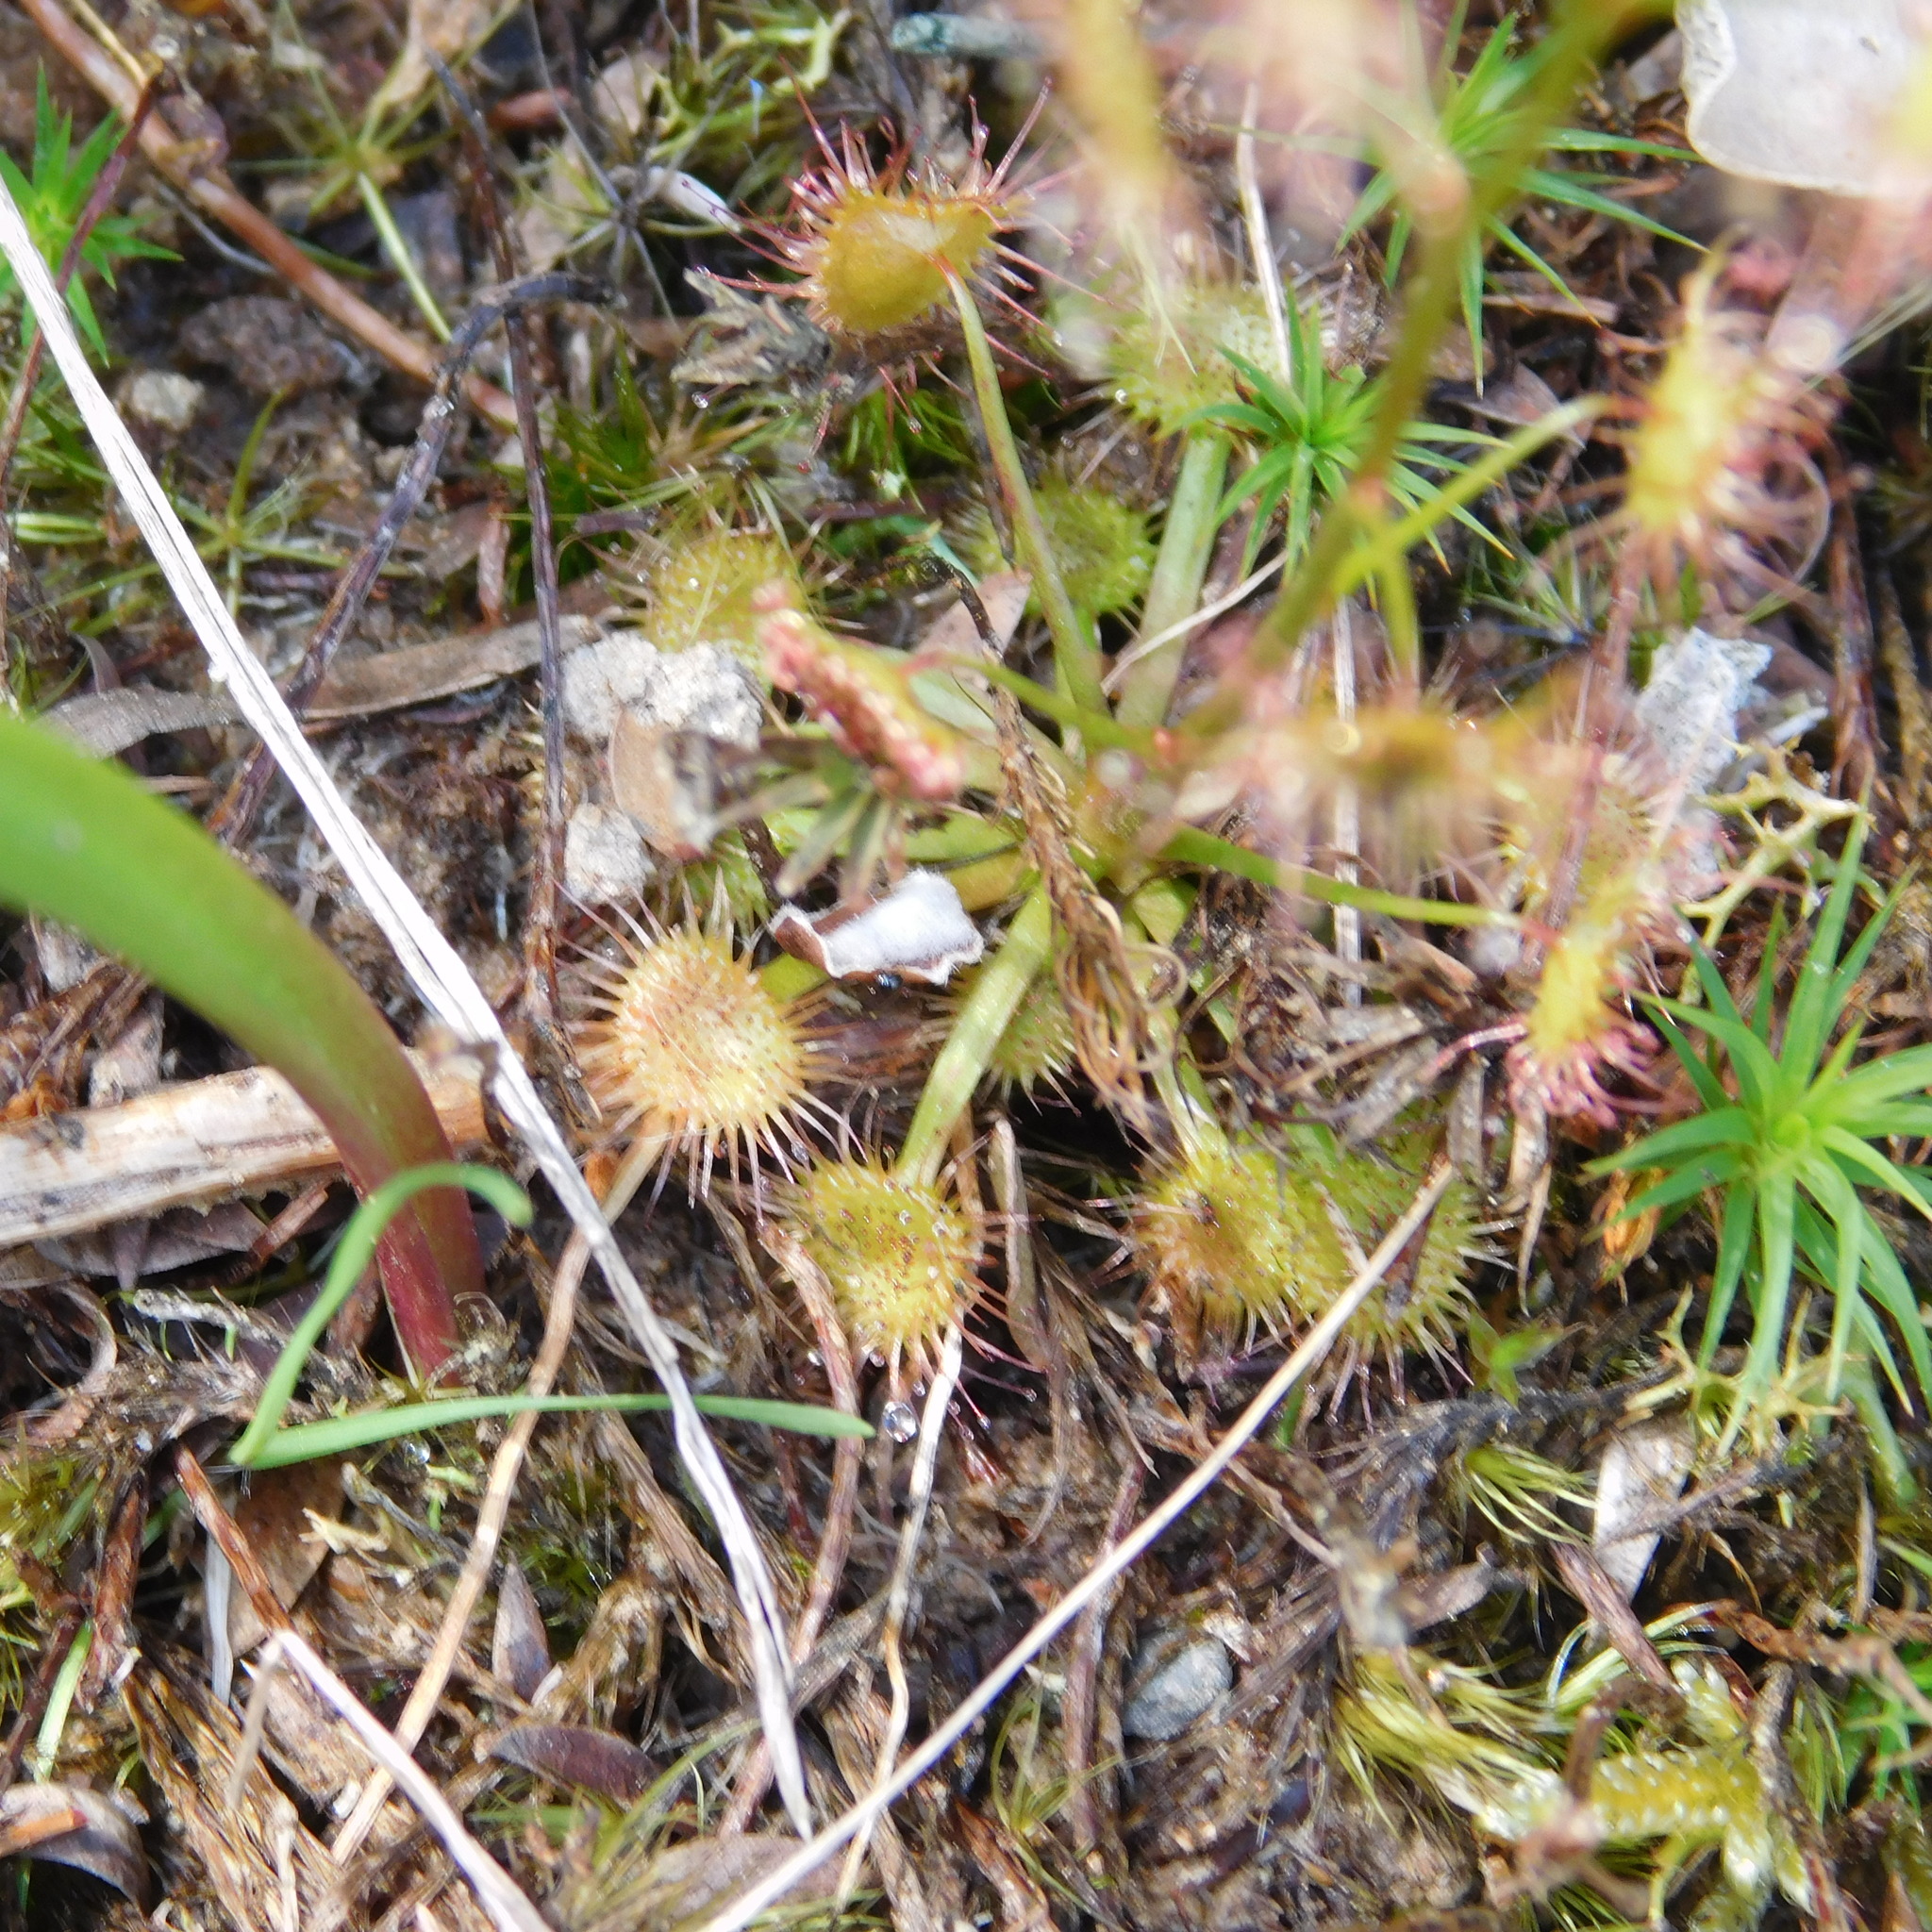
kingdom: Plantae
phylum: Tracheophyta
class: Magnoliopsida
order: Caryophyllales
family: Droseraceae
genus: Drosera
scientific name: Drosera peltata
